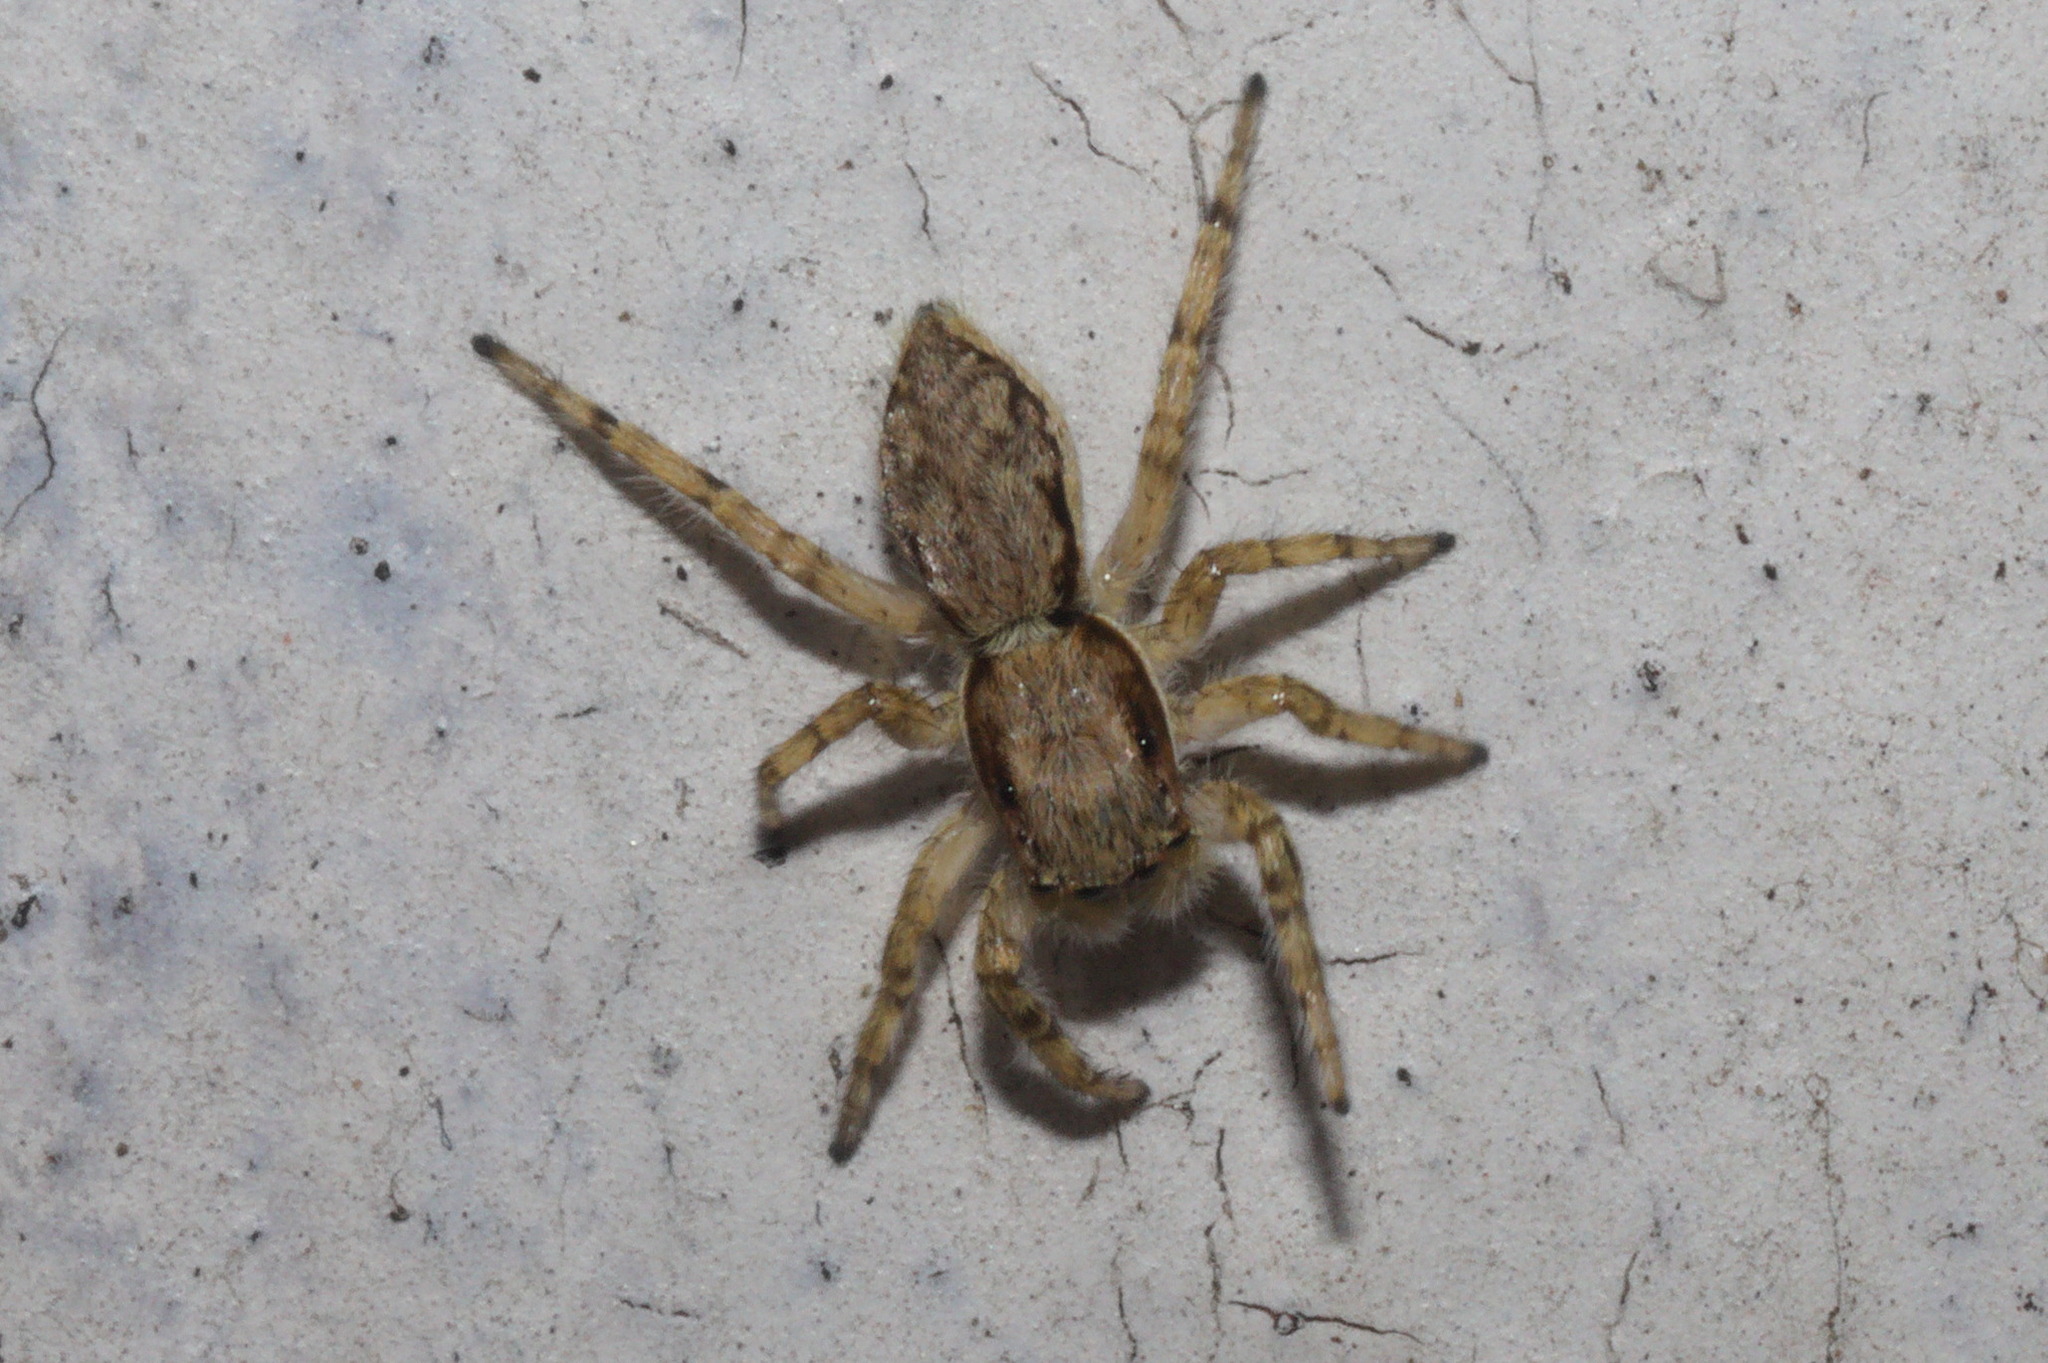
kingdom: Animalia
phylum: Arthropoda
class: Arachnida
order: Araneae
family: Salticidae
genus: Menemerus
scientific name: Menemerus bivittatus
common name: Gray wall jumper
